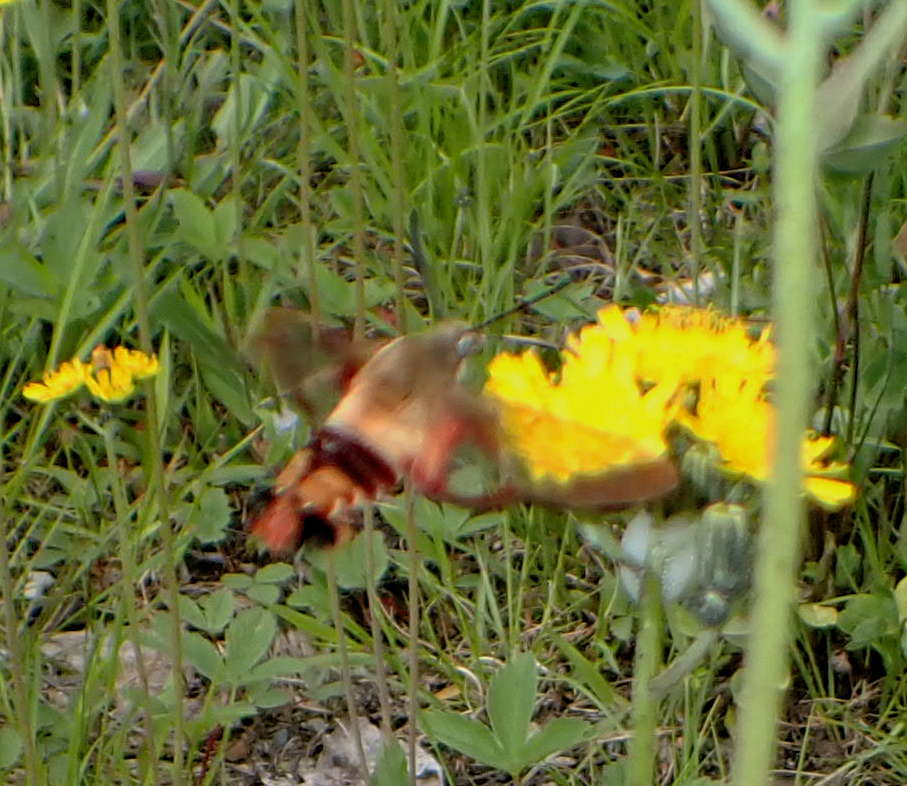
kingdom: Animalia
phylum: Arthropoda
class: Insecta
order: Lepidoptera
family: Sphingidae
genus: Hemaris
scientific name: Hemaris thysbe
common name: Common clear-wing
